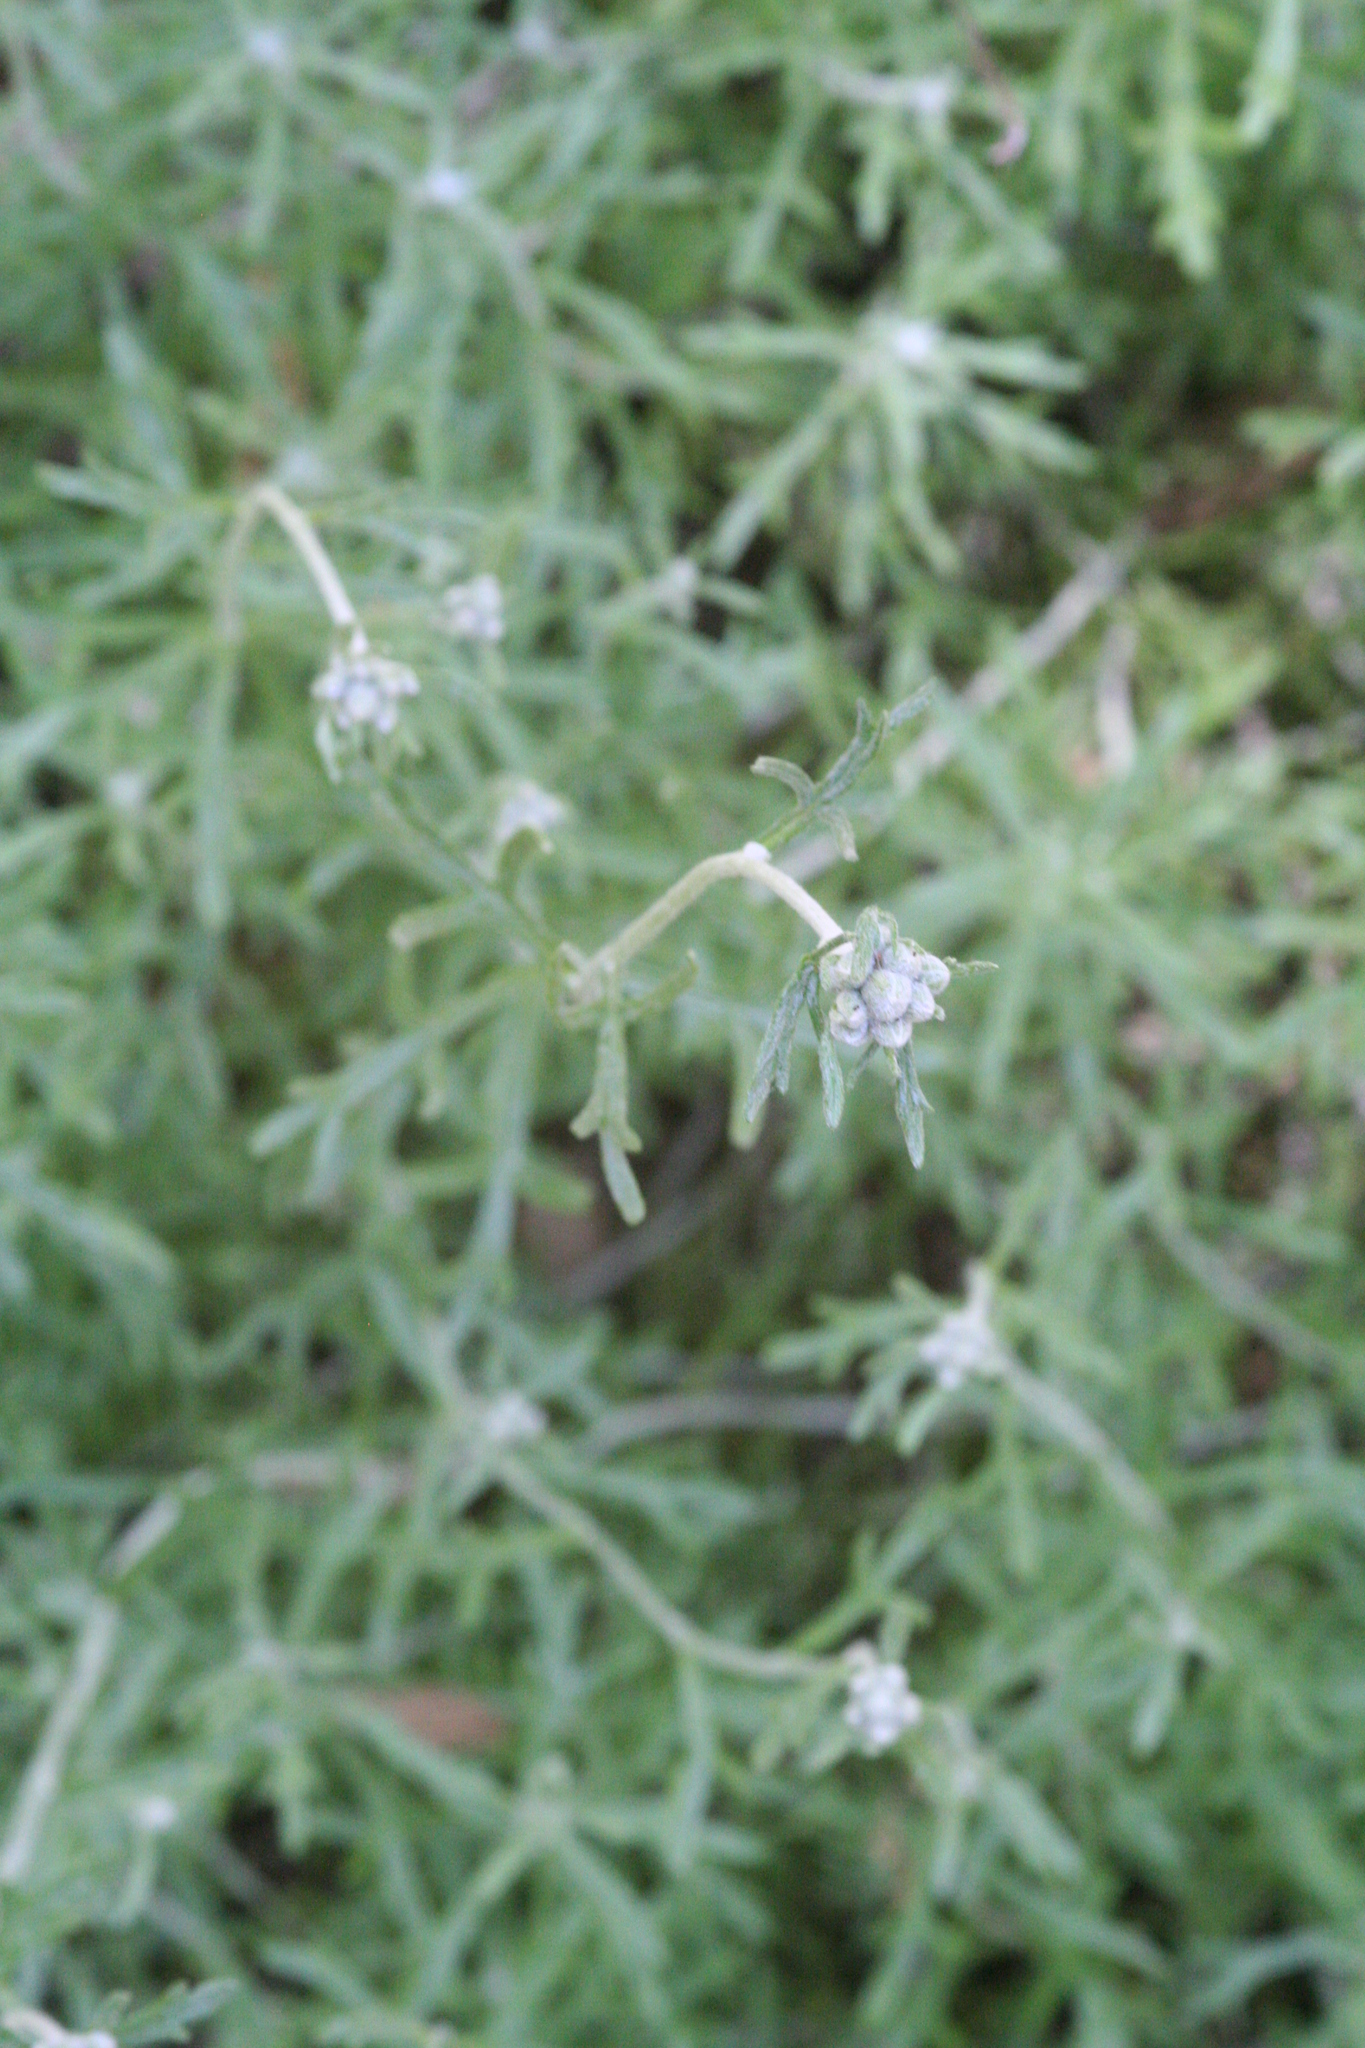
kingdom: Plantae
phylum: Tracheophyta
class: Magnoliopsida
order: Asterales
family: Asteraceae
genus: Eriophyllum
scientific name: Eriophyllum confertiflorum
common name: Golden-yarrow
